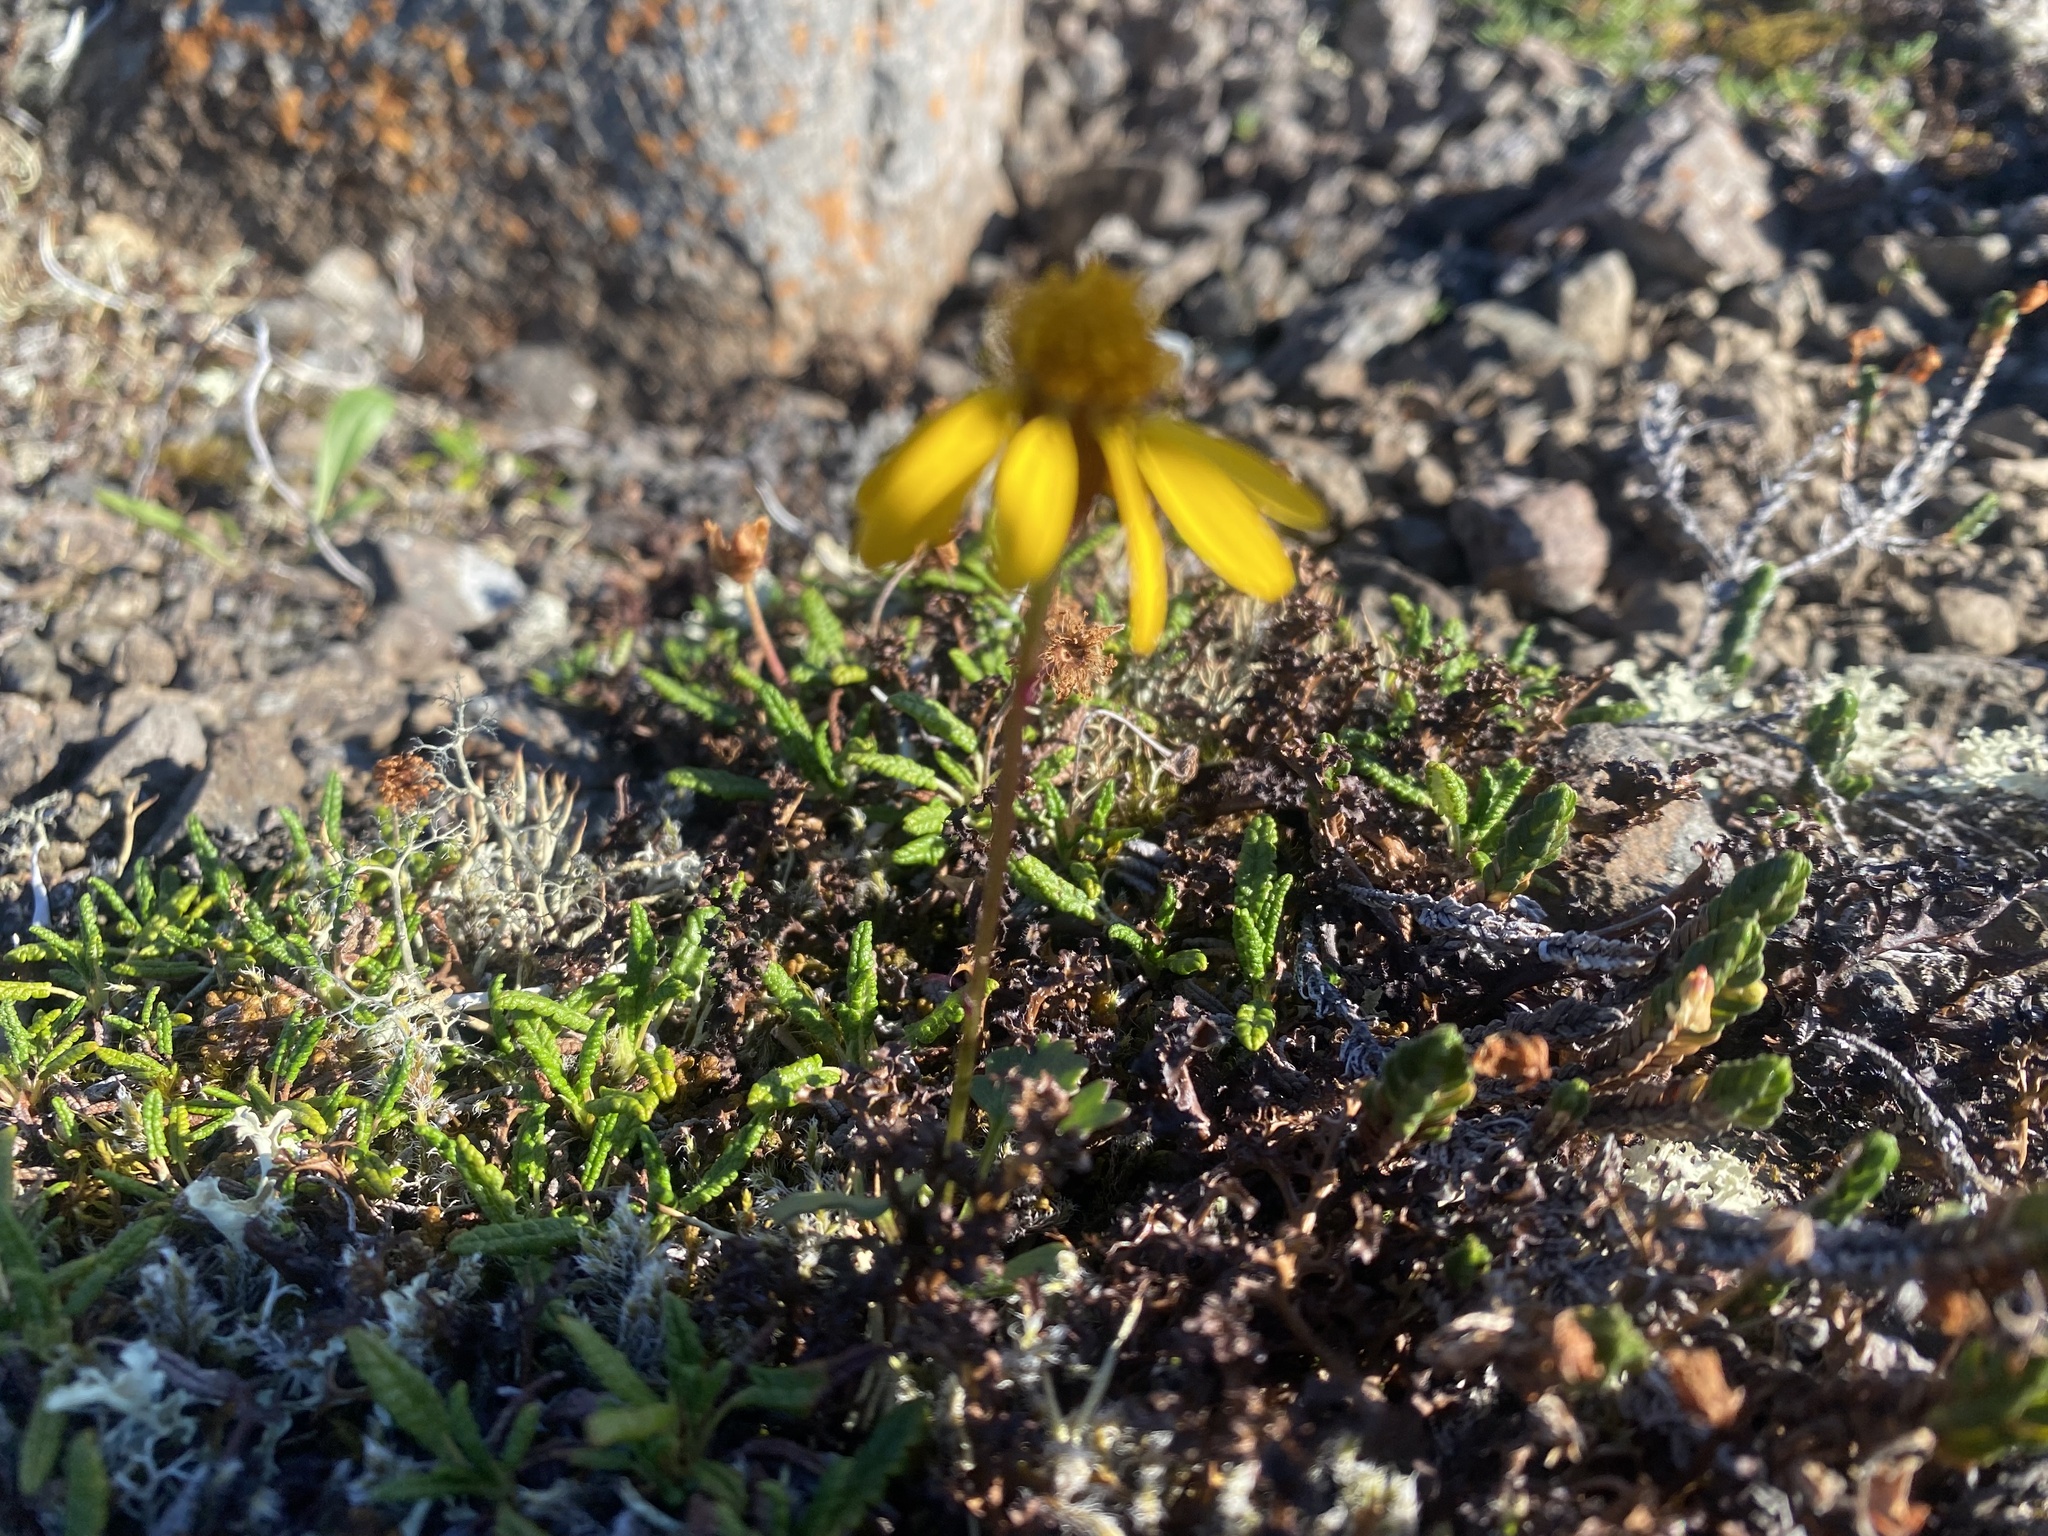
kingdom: Plantae
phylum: Tracheophyta
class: Magnoliopsida
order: Asterales
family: Asteraceae
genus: Packera
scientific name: Packera heterophylla
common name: Arctic butterweed
